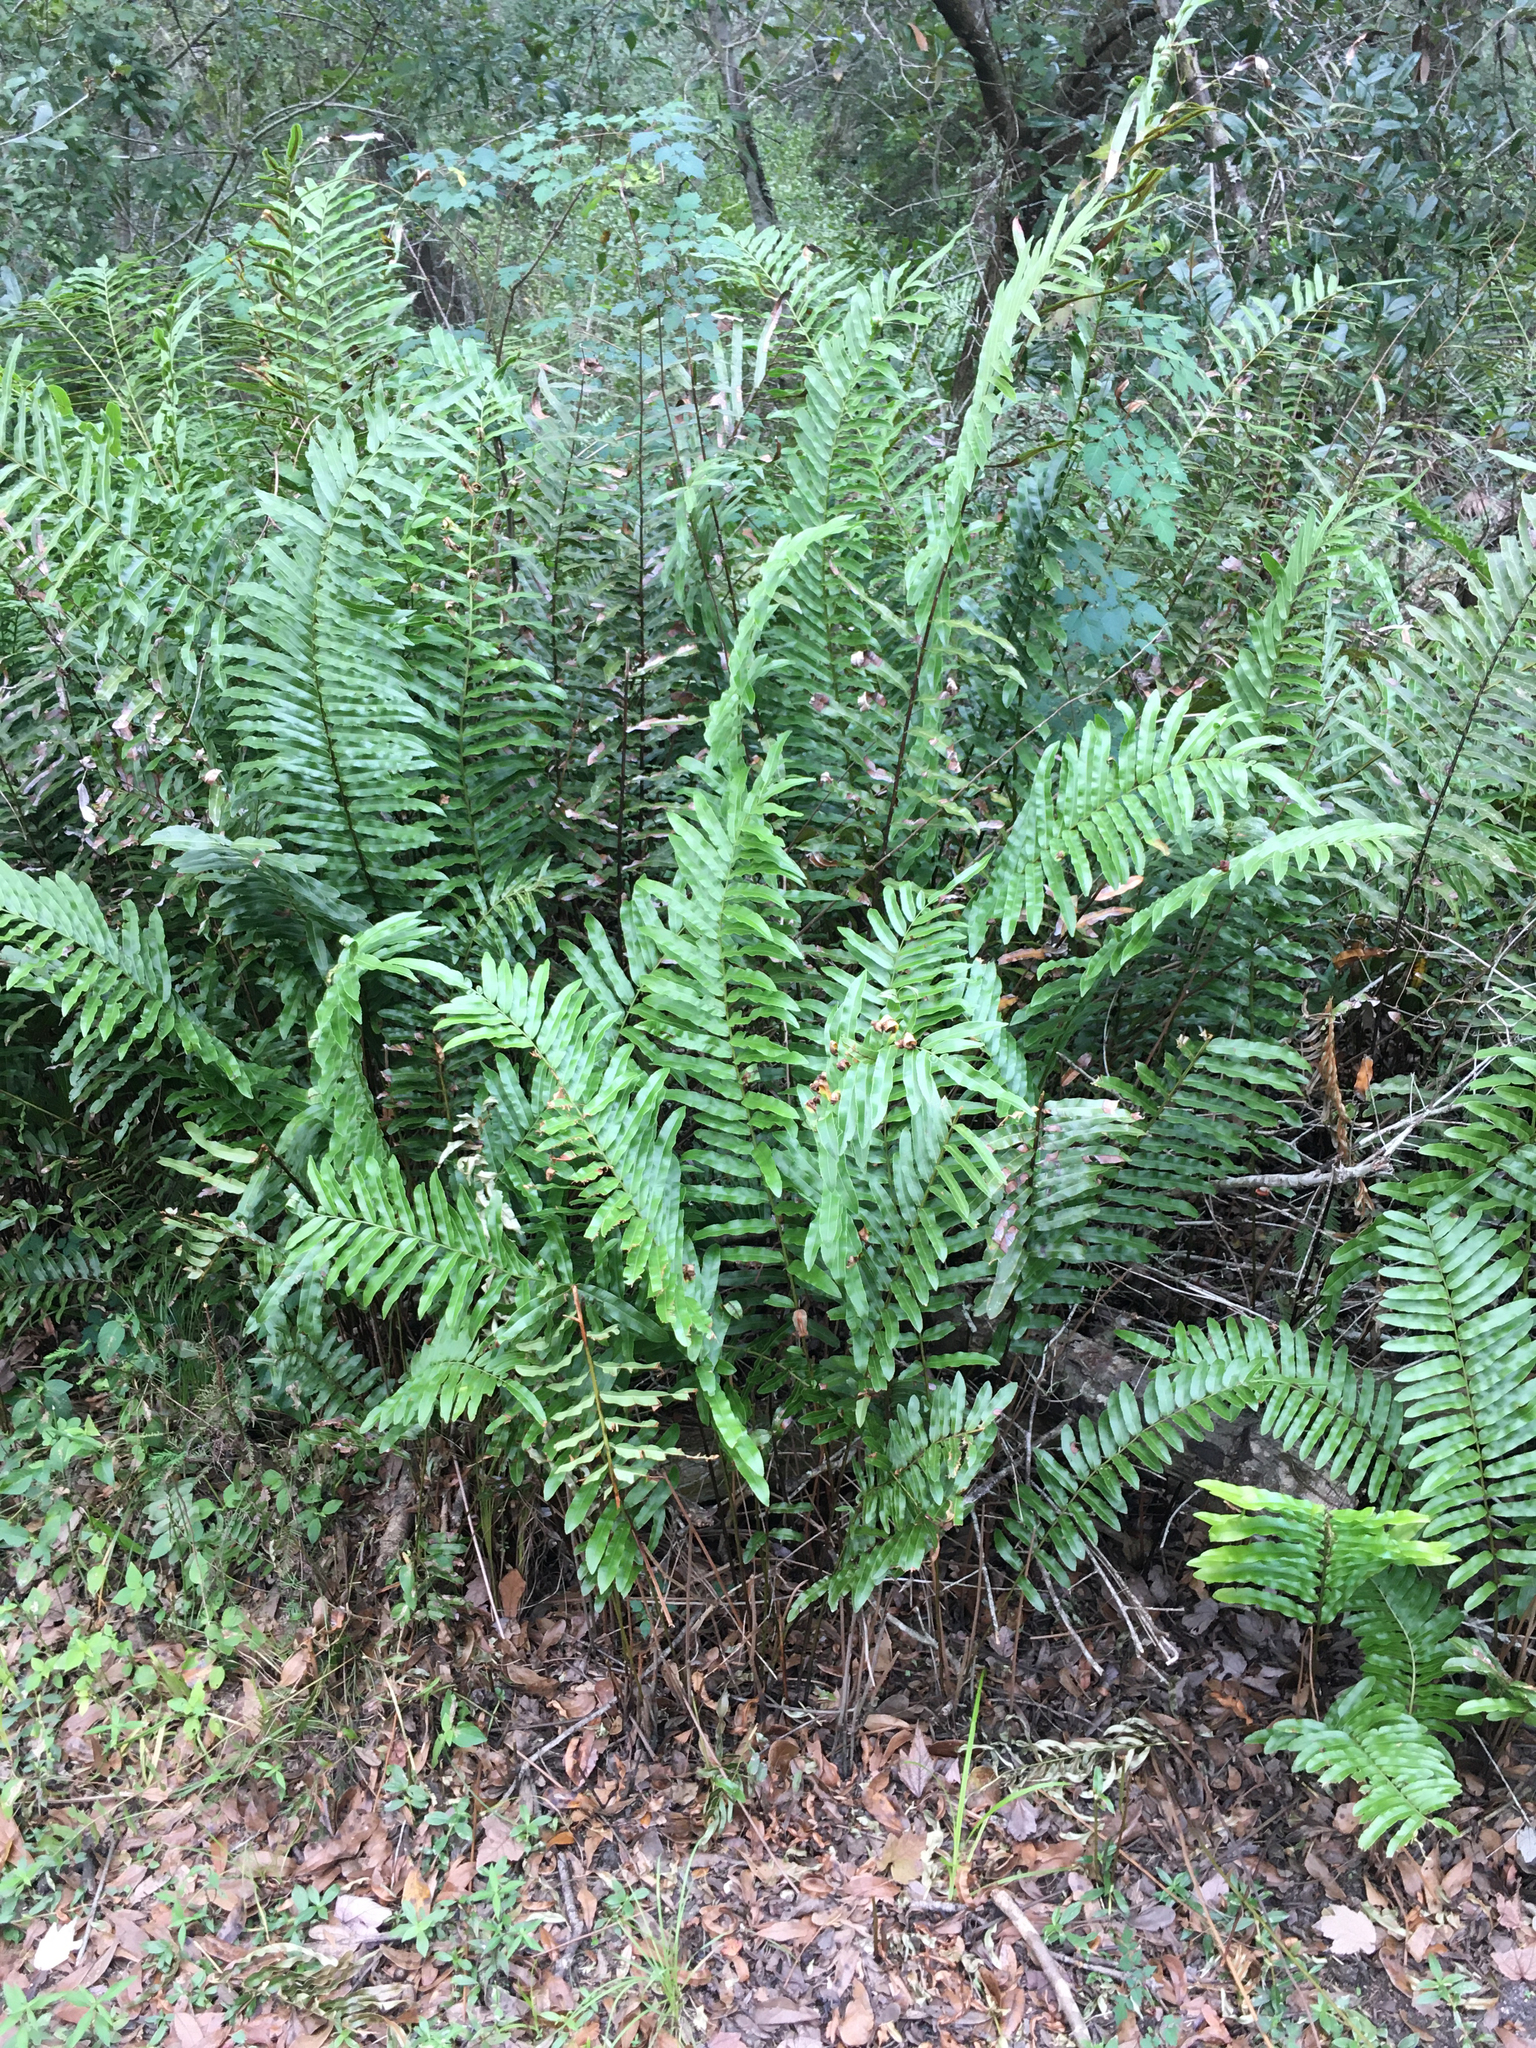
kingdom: Plantae
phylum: Tracheophyta
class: Polypodiopsida
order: Polypodiales
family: Blechnaceae
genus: Telmatoblechnum
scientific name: Telmatoblechnum serrulatum
